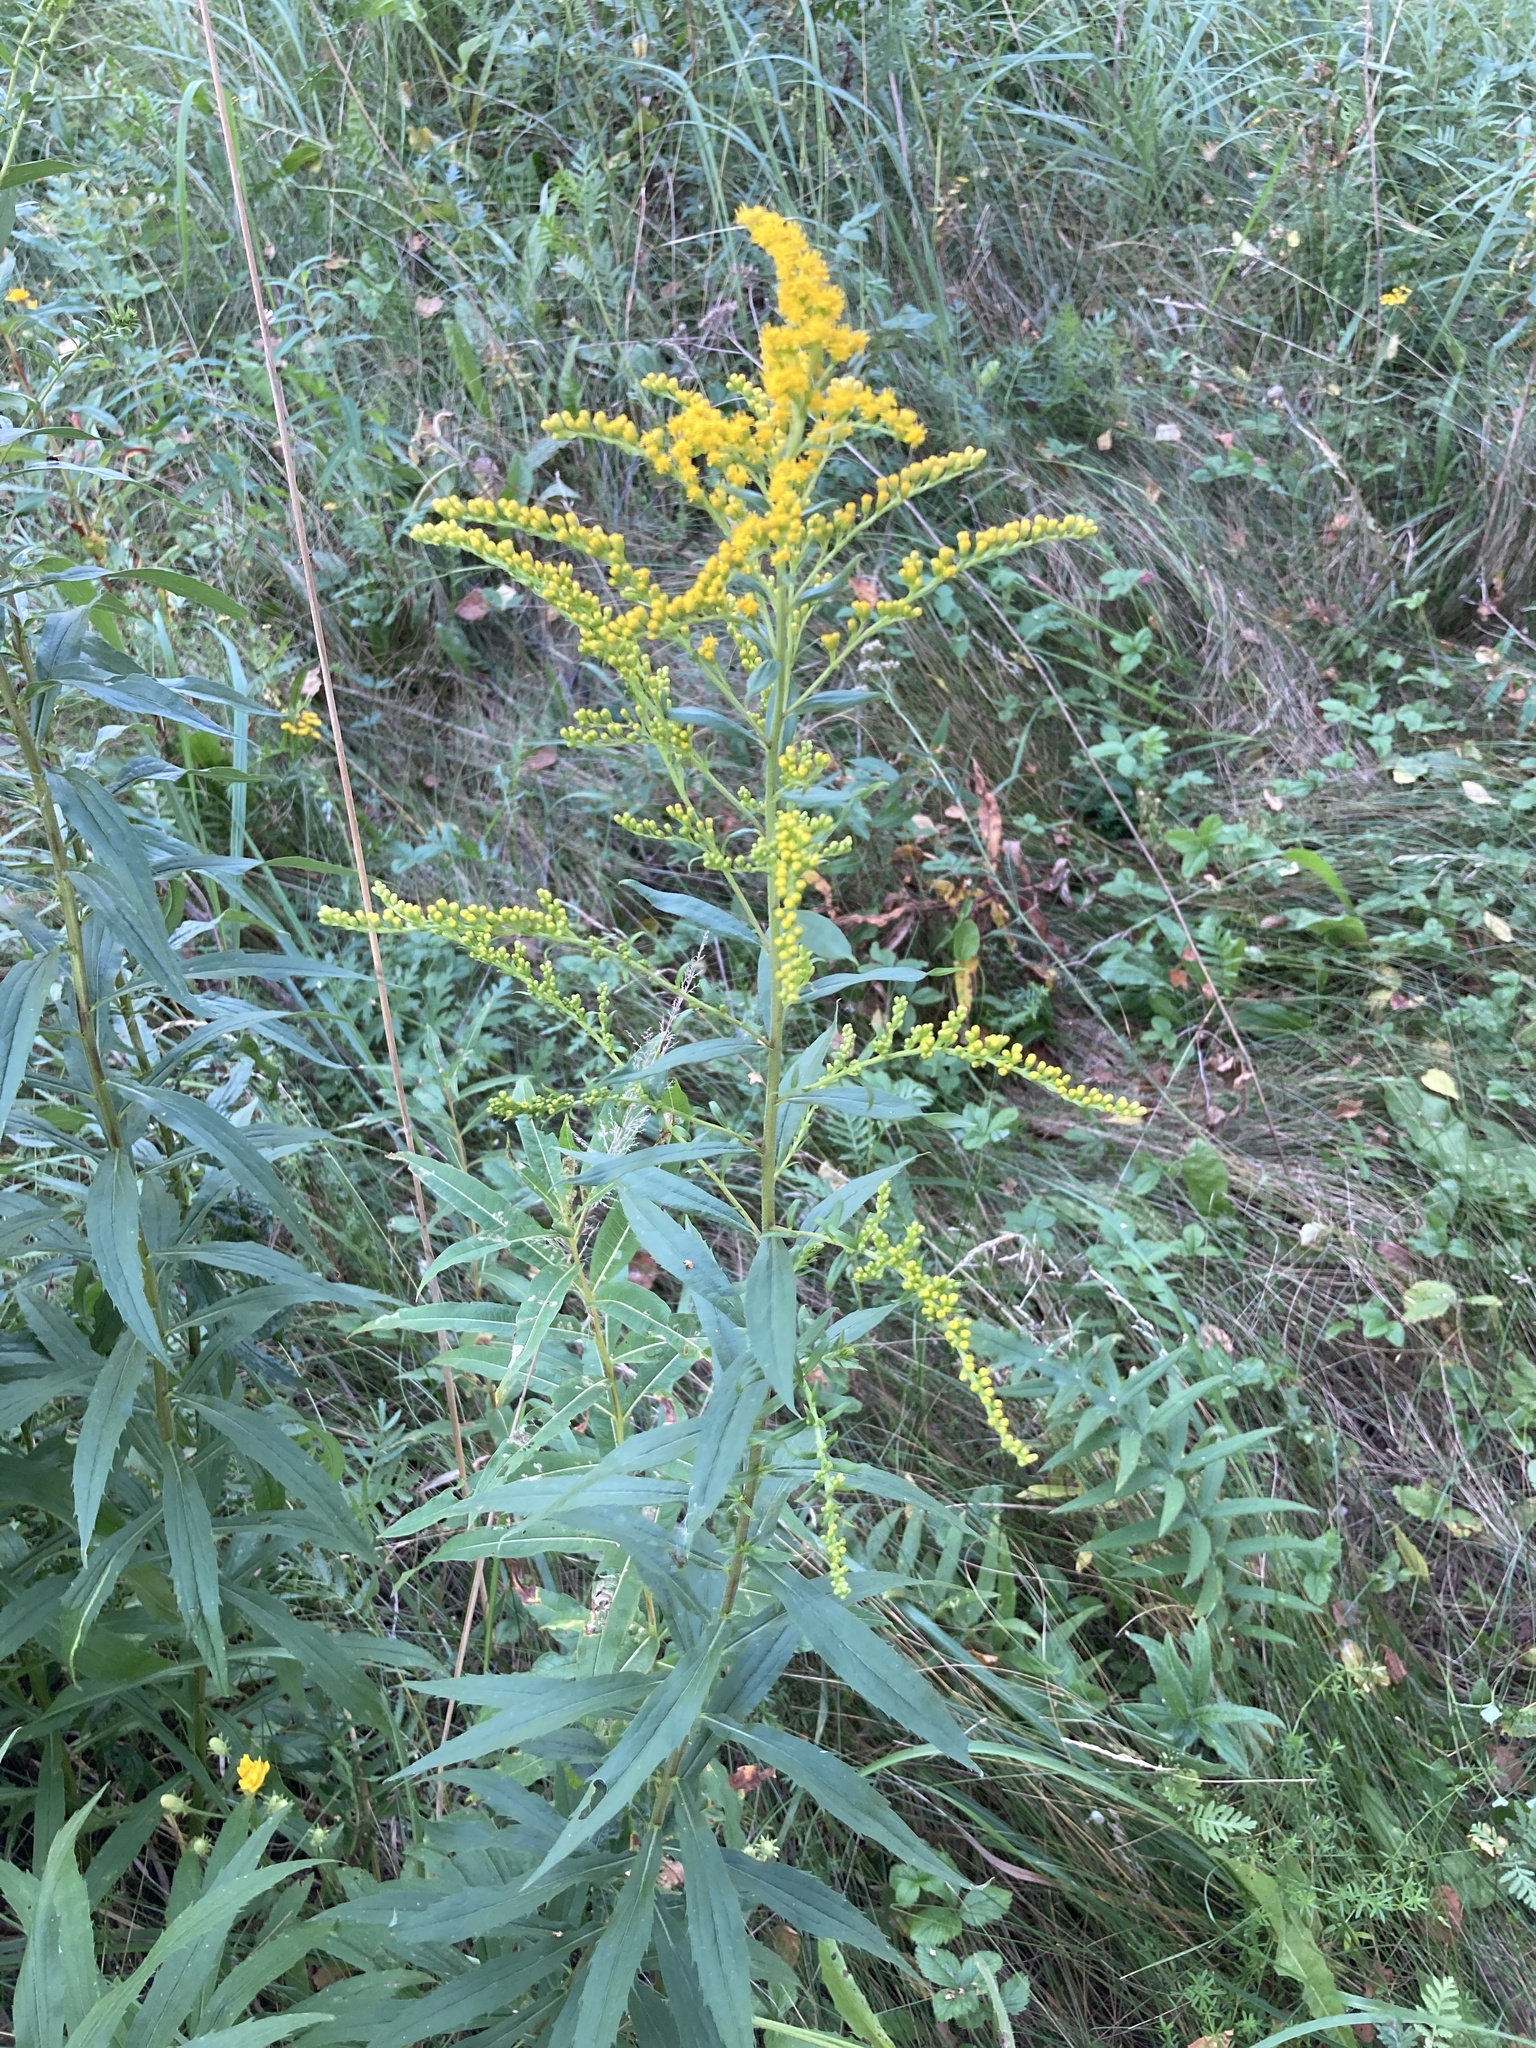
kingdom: Plantae
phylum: Tracheophyta
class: Magnoliopsida
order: Asterales
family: Asteraceae
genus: Solidago
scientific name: Solidago canadensis
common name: Canada goldenrod
